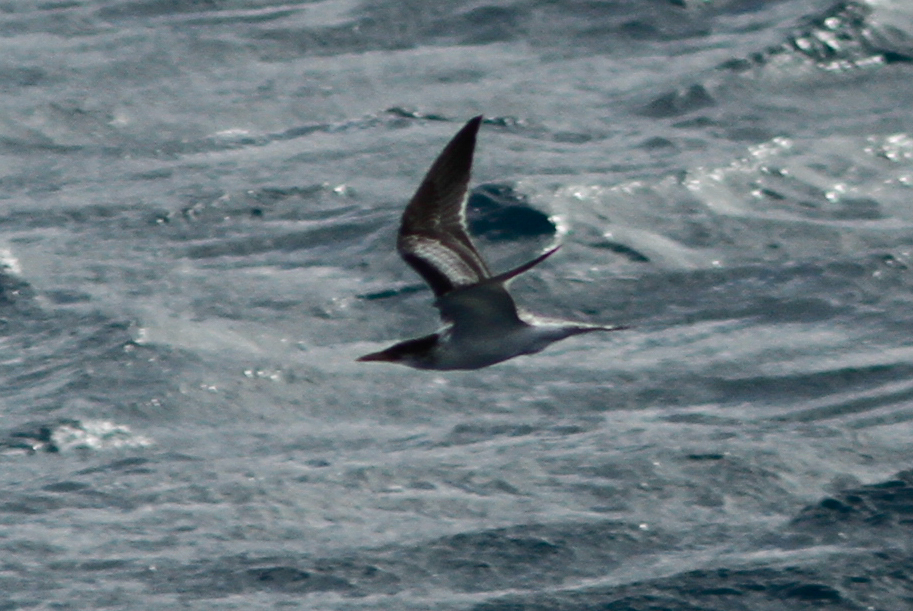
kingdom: Animalia
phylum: Chordata
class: Aves
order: Charadriiformes
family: Laridae
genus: Thalasseus
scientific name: Thalasseus bergii
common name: Greater crested tern
